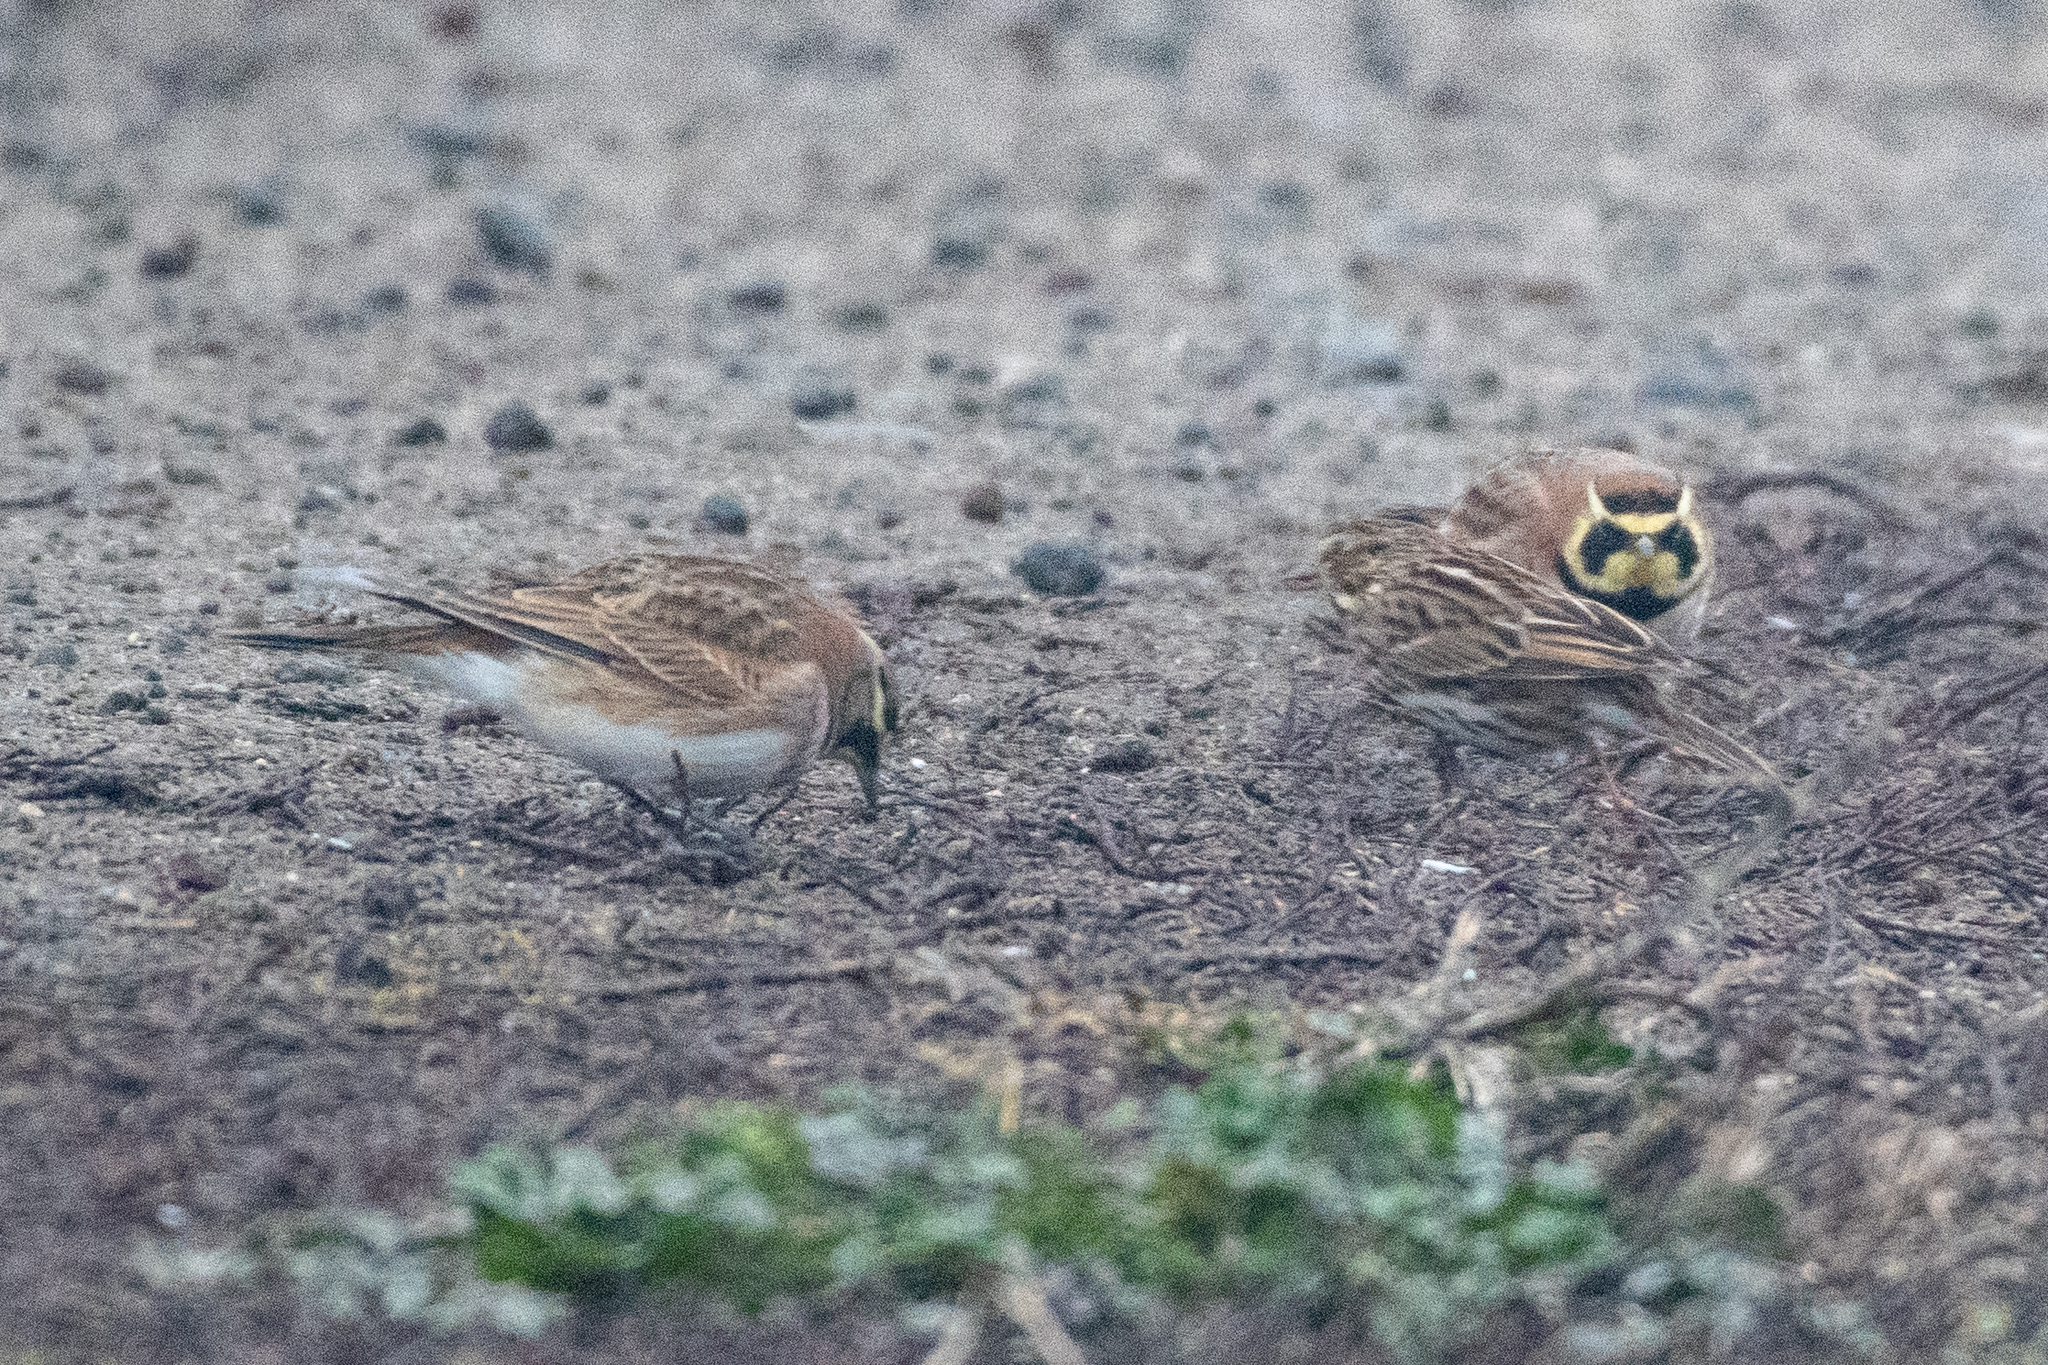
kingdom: Animalia
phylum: Chordata
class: Aves
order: Passeriformes
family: Alaudidae
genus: Eremophila
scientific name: Eremophila alpestris
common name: Horned lark
